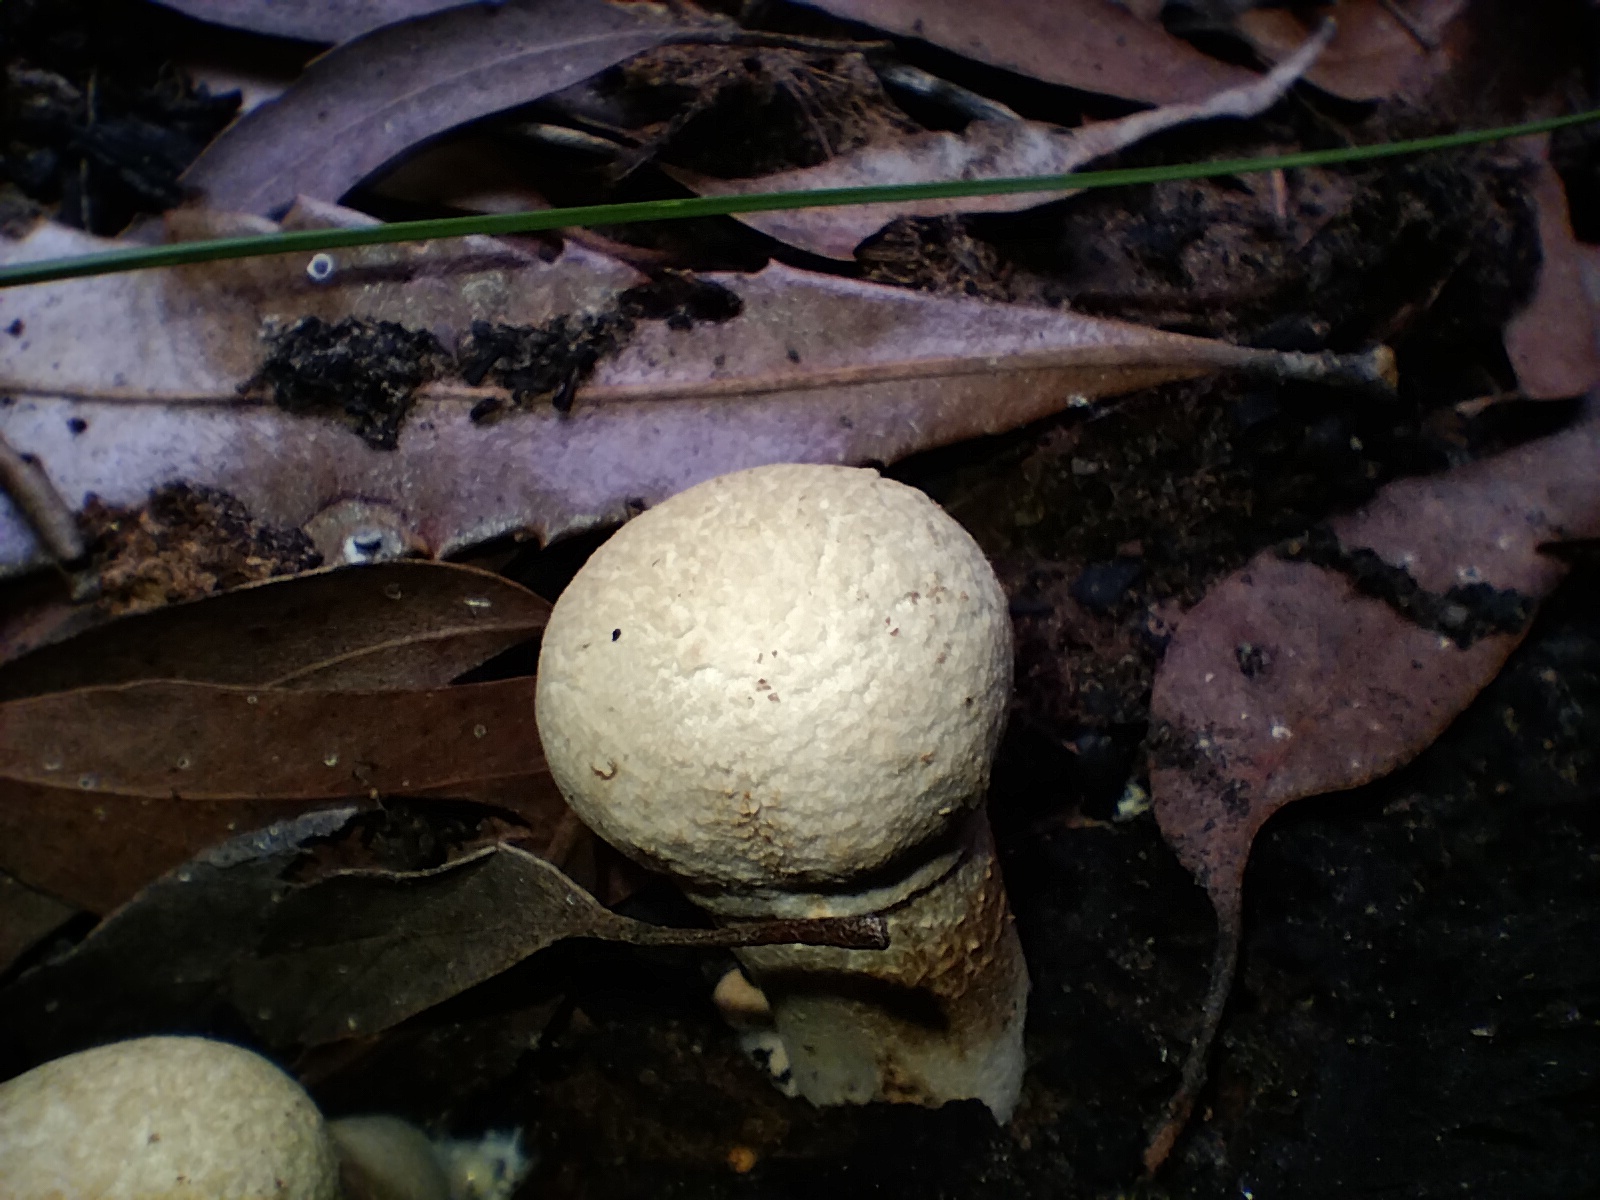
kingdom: Fungi
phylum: Basidiomycota
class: Agaricomycetes
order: Boletales
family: Boletaceae
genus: Boletellus
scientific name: Boletellus dissiliens
